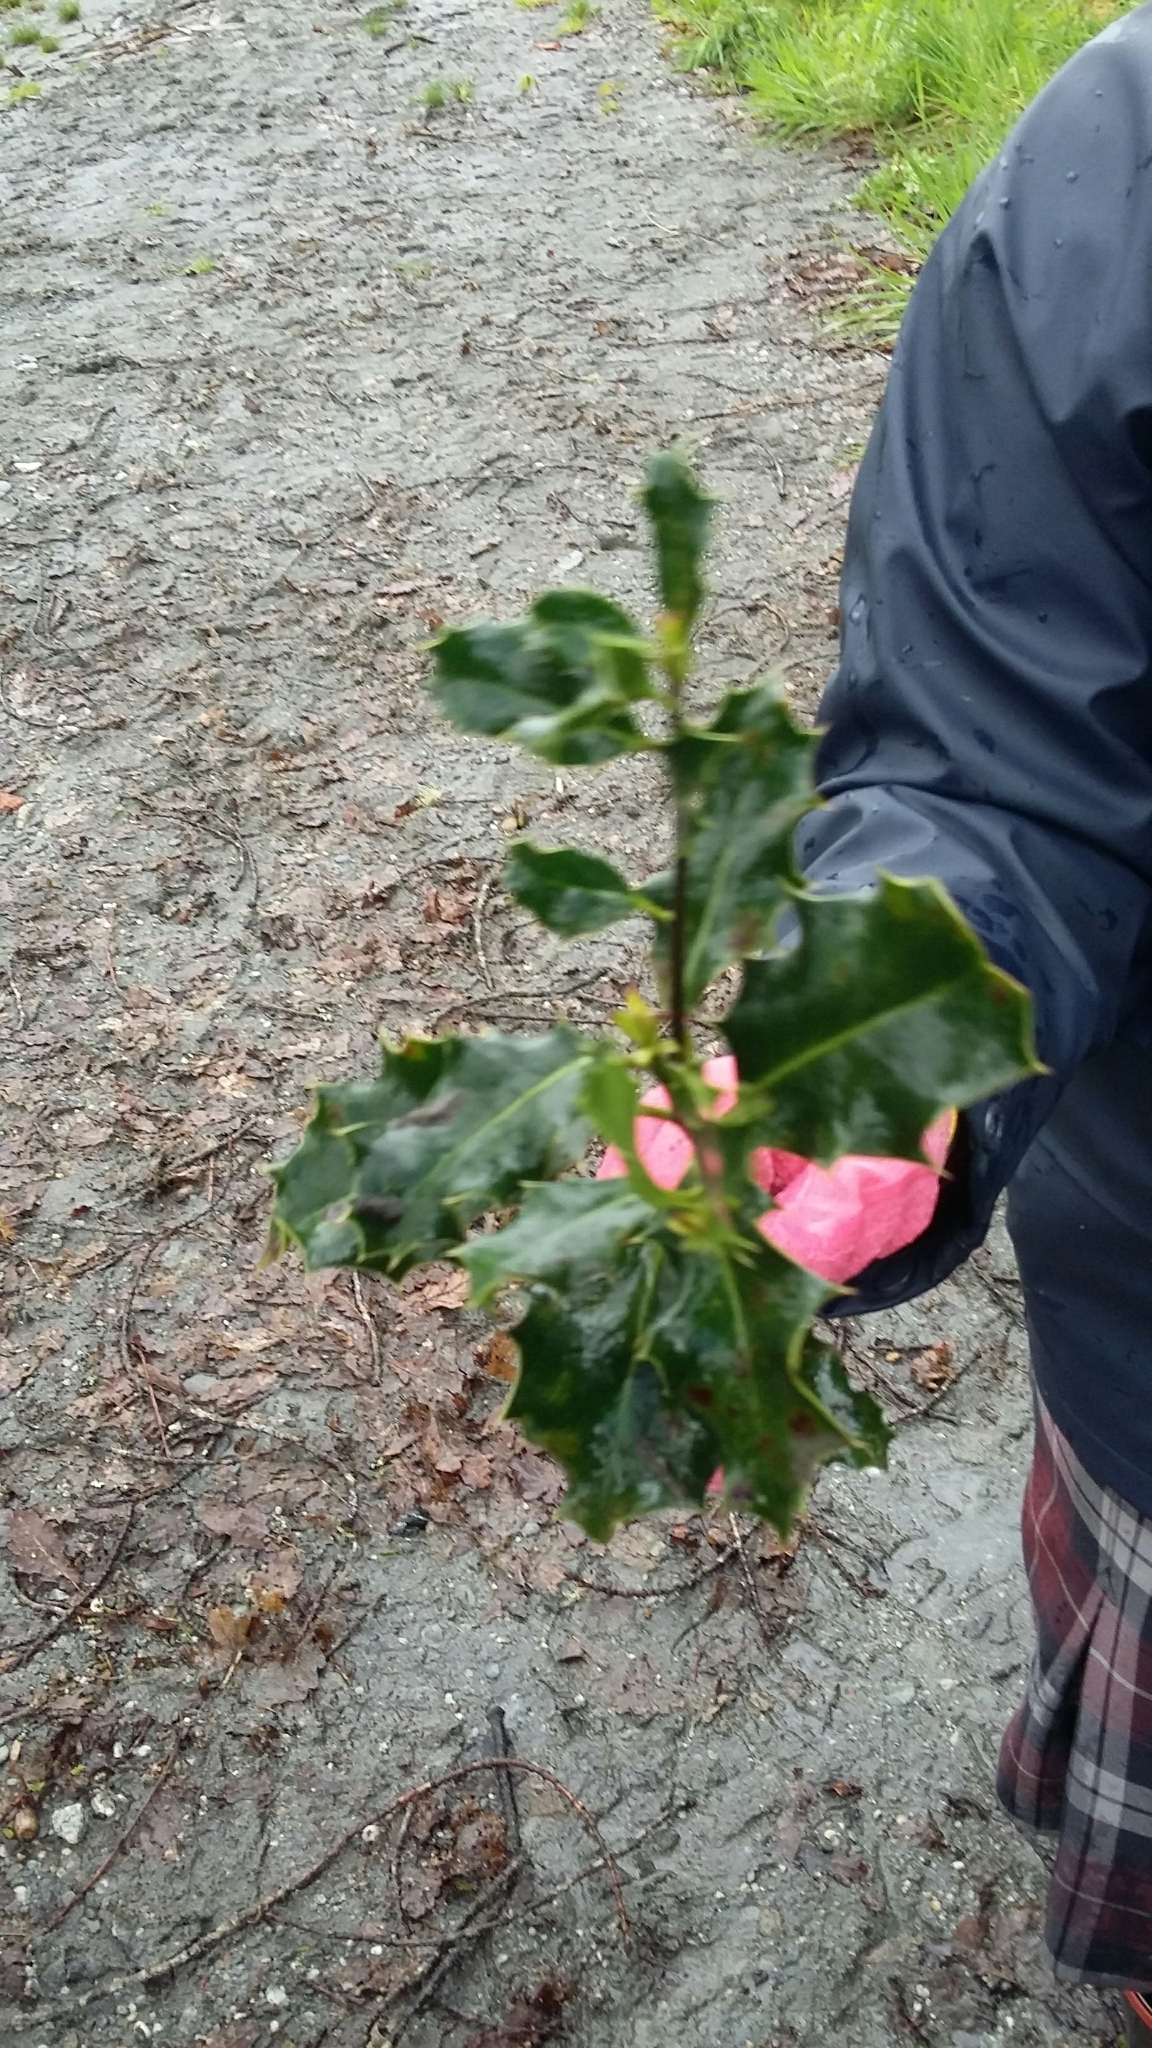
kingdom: Plantae
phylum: Tracheophyta
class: Magnoliopsida
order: Aquifoliales
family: Aquifoliaceae
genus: Ilex
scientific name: Ilex aquifolium
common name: English holly
